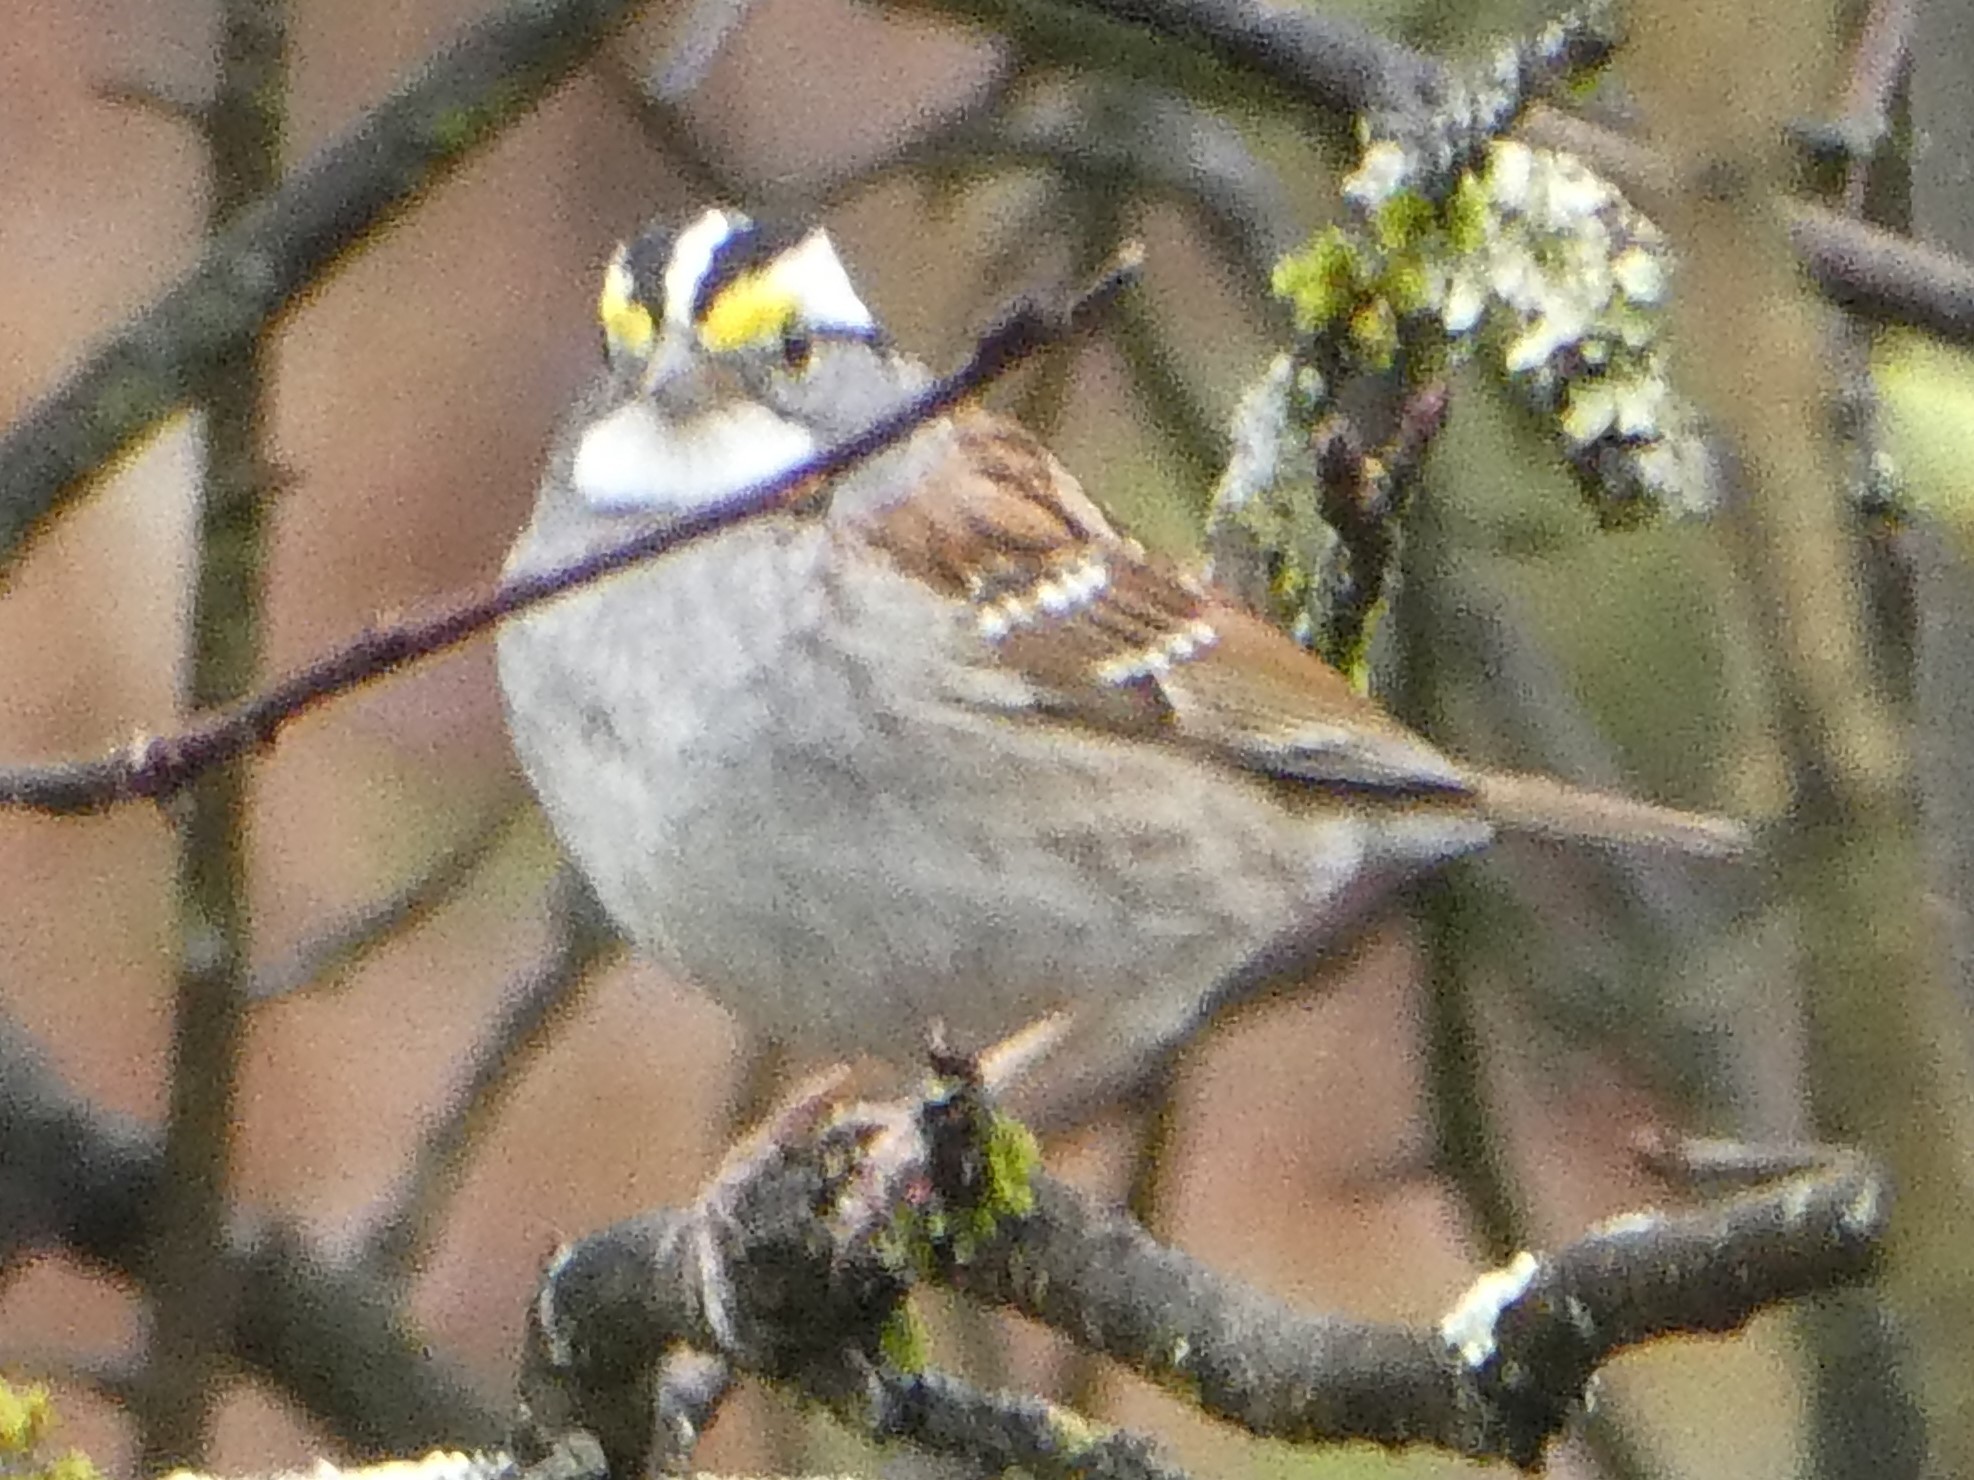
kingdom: Animalia
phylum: Chordata
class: Aves
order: Passeriformes
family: Passerellidae
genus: Zonotrichia
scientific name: Zonotrichia albicollis
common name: White-throated sparrow
